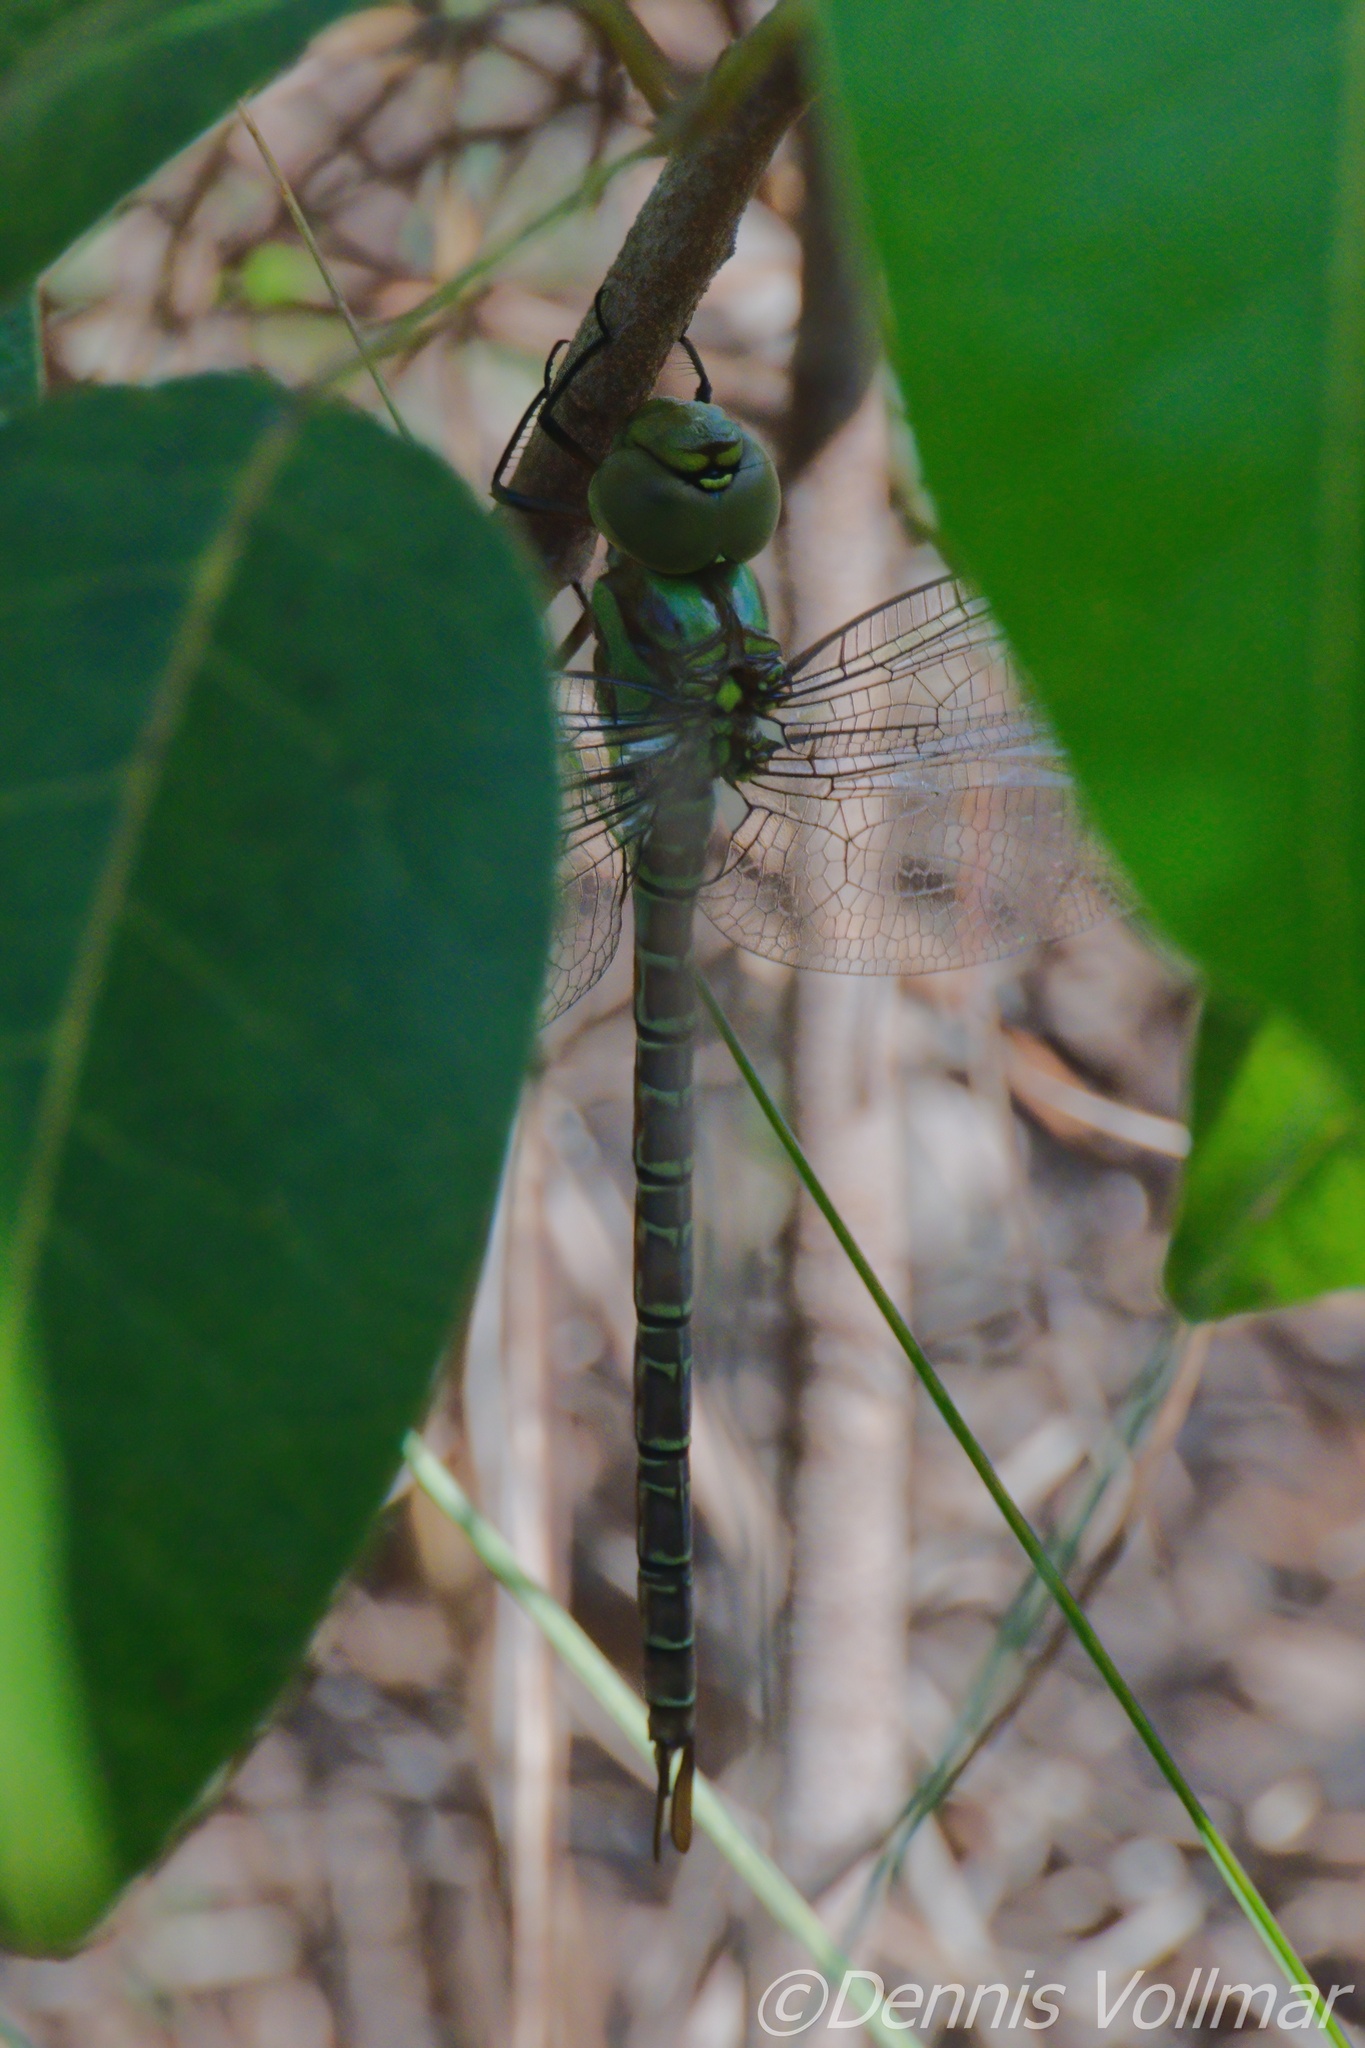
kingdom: Animalia
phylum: Arthropoda
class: Insecta
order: Odonata
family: Aeshnidae
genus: Coryphaeschna
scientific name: Coryphaeschna ingens
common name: Regal darner
